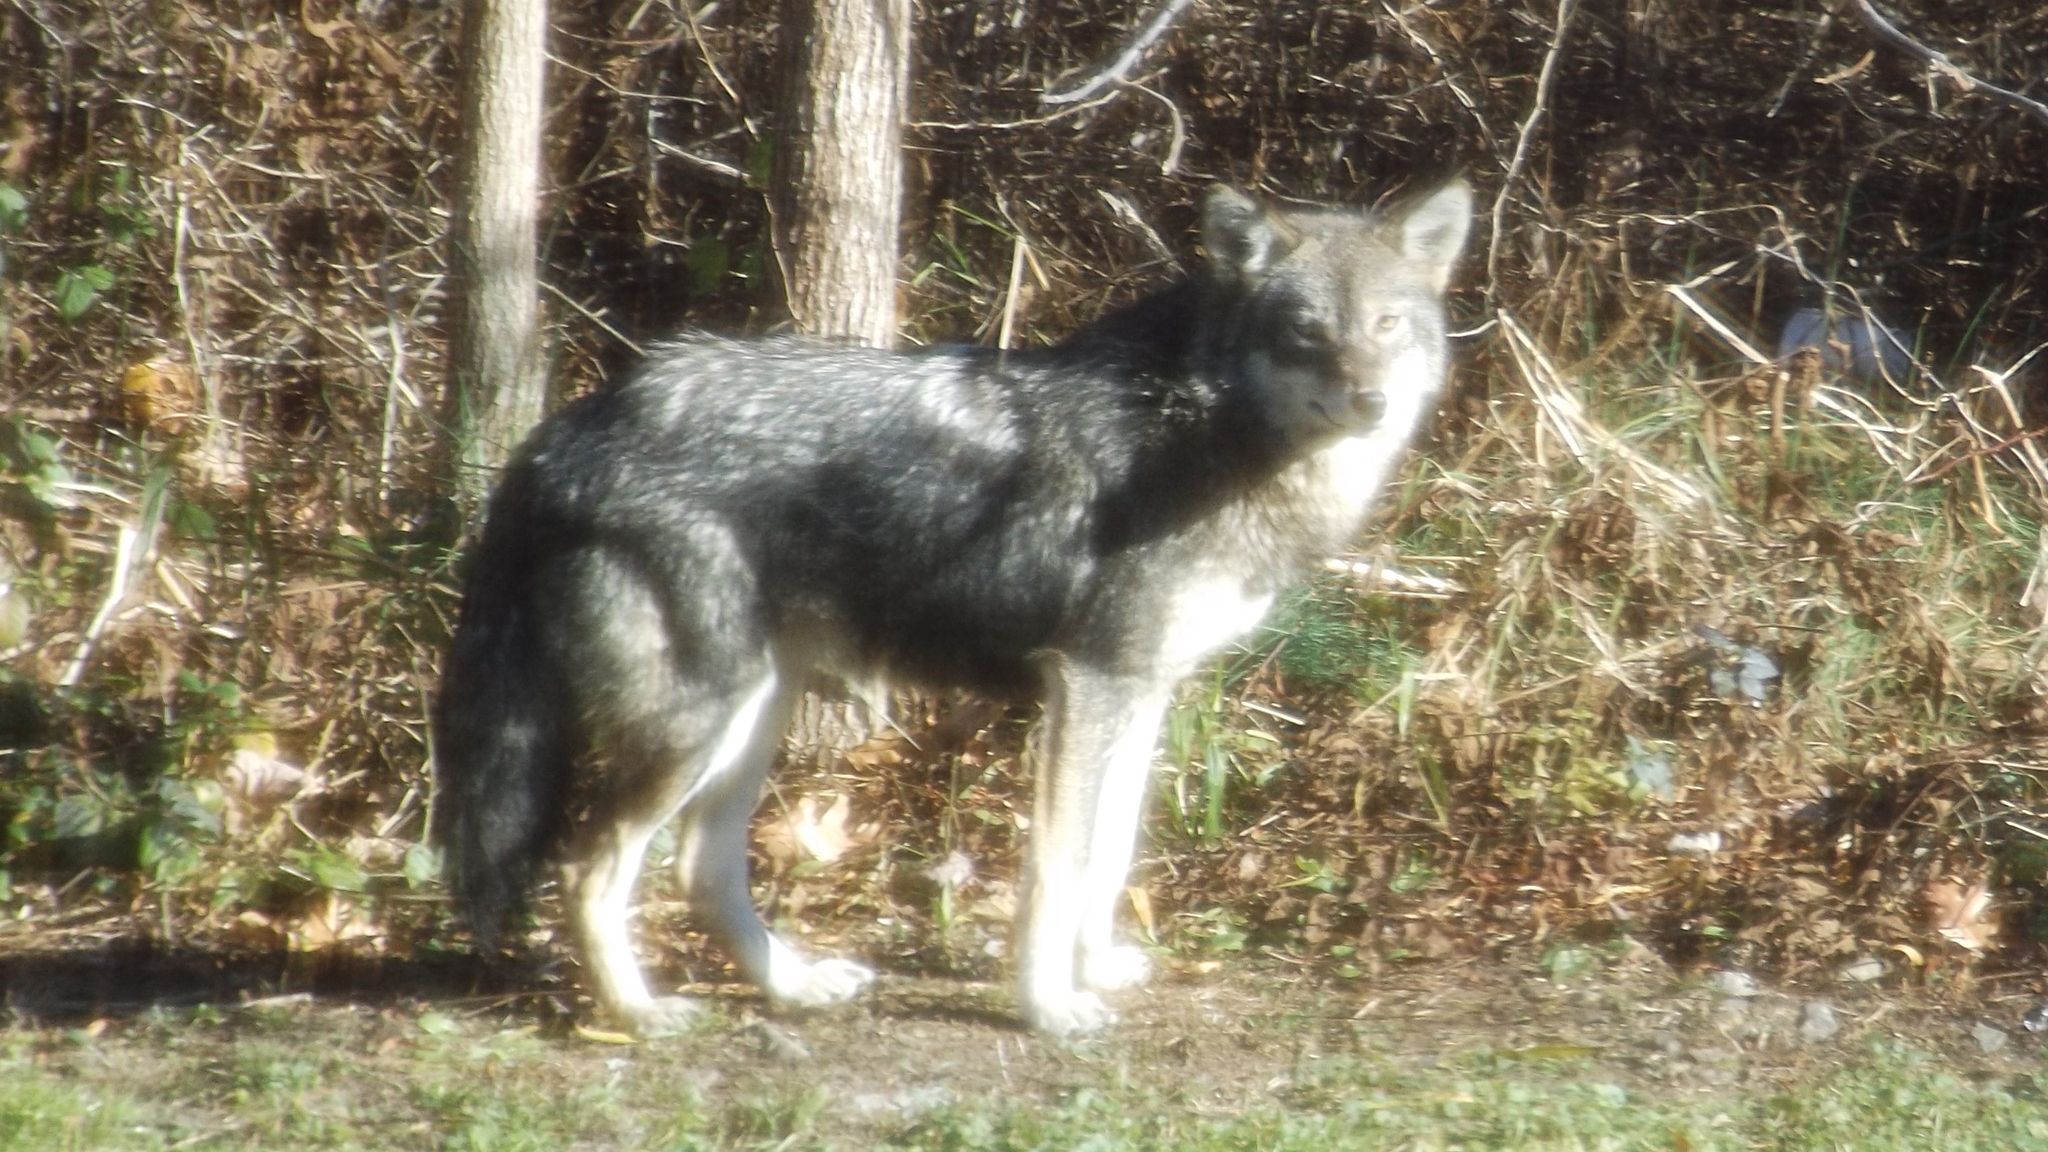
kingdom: Animalia
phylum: Chordata
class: Mammalia
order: Carnivora
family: Canidae
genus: Canis
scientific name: Canis latrans
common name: Coyote
